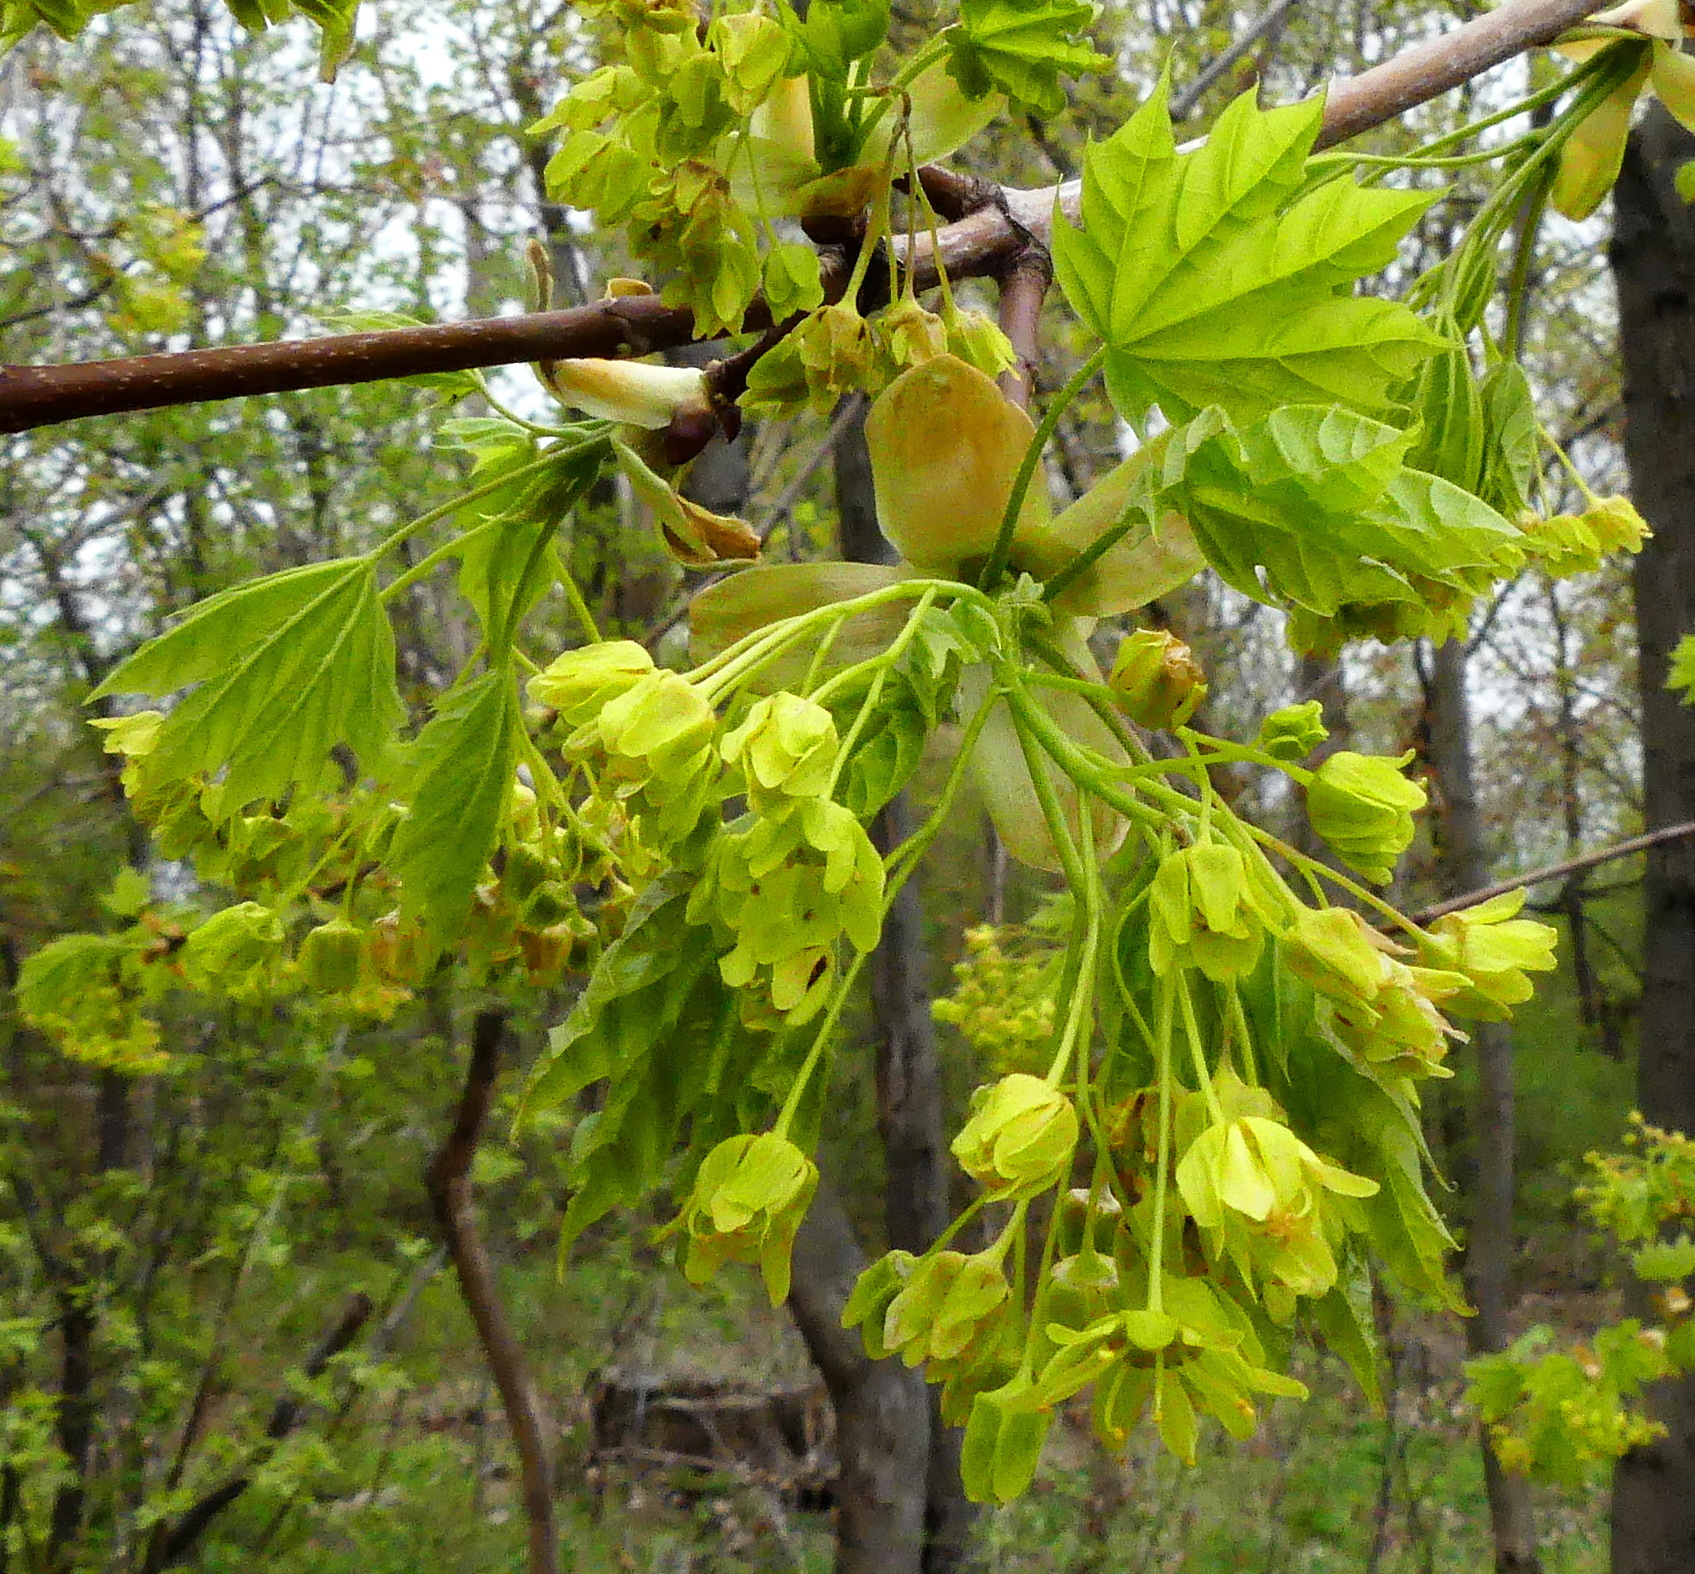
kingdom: Plantae
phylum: Tracheophyta
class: Magnoliopsida
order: Sapindales
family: Sapindaceae
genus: Acer
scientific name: Acer platanoides
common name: Norway maple
